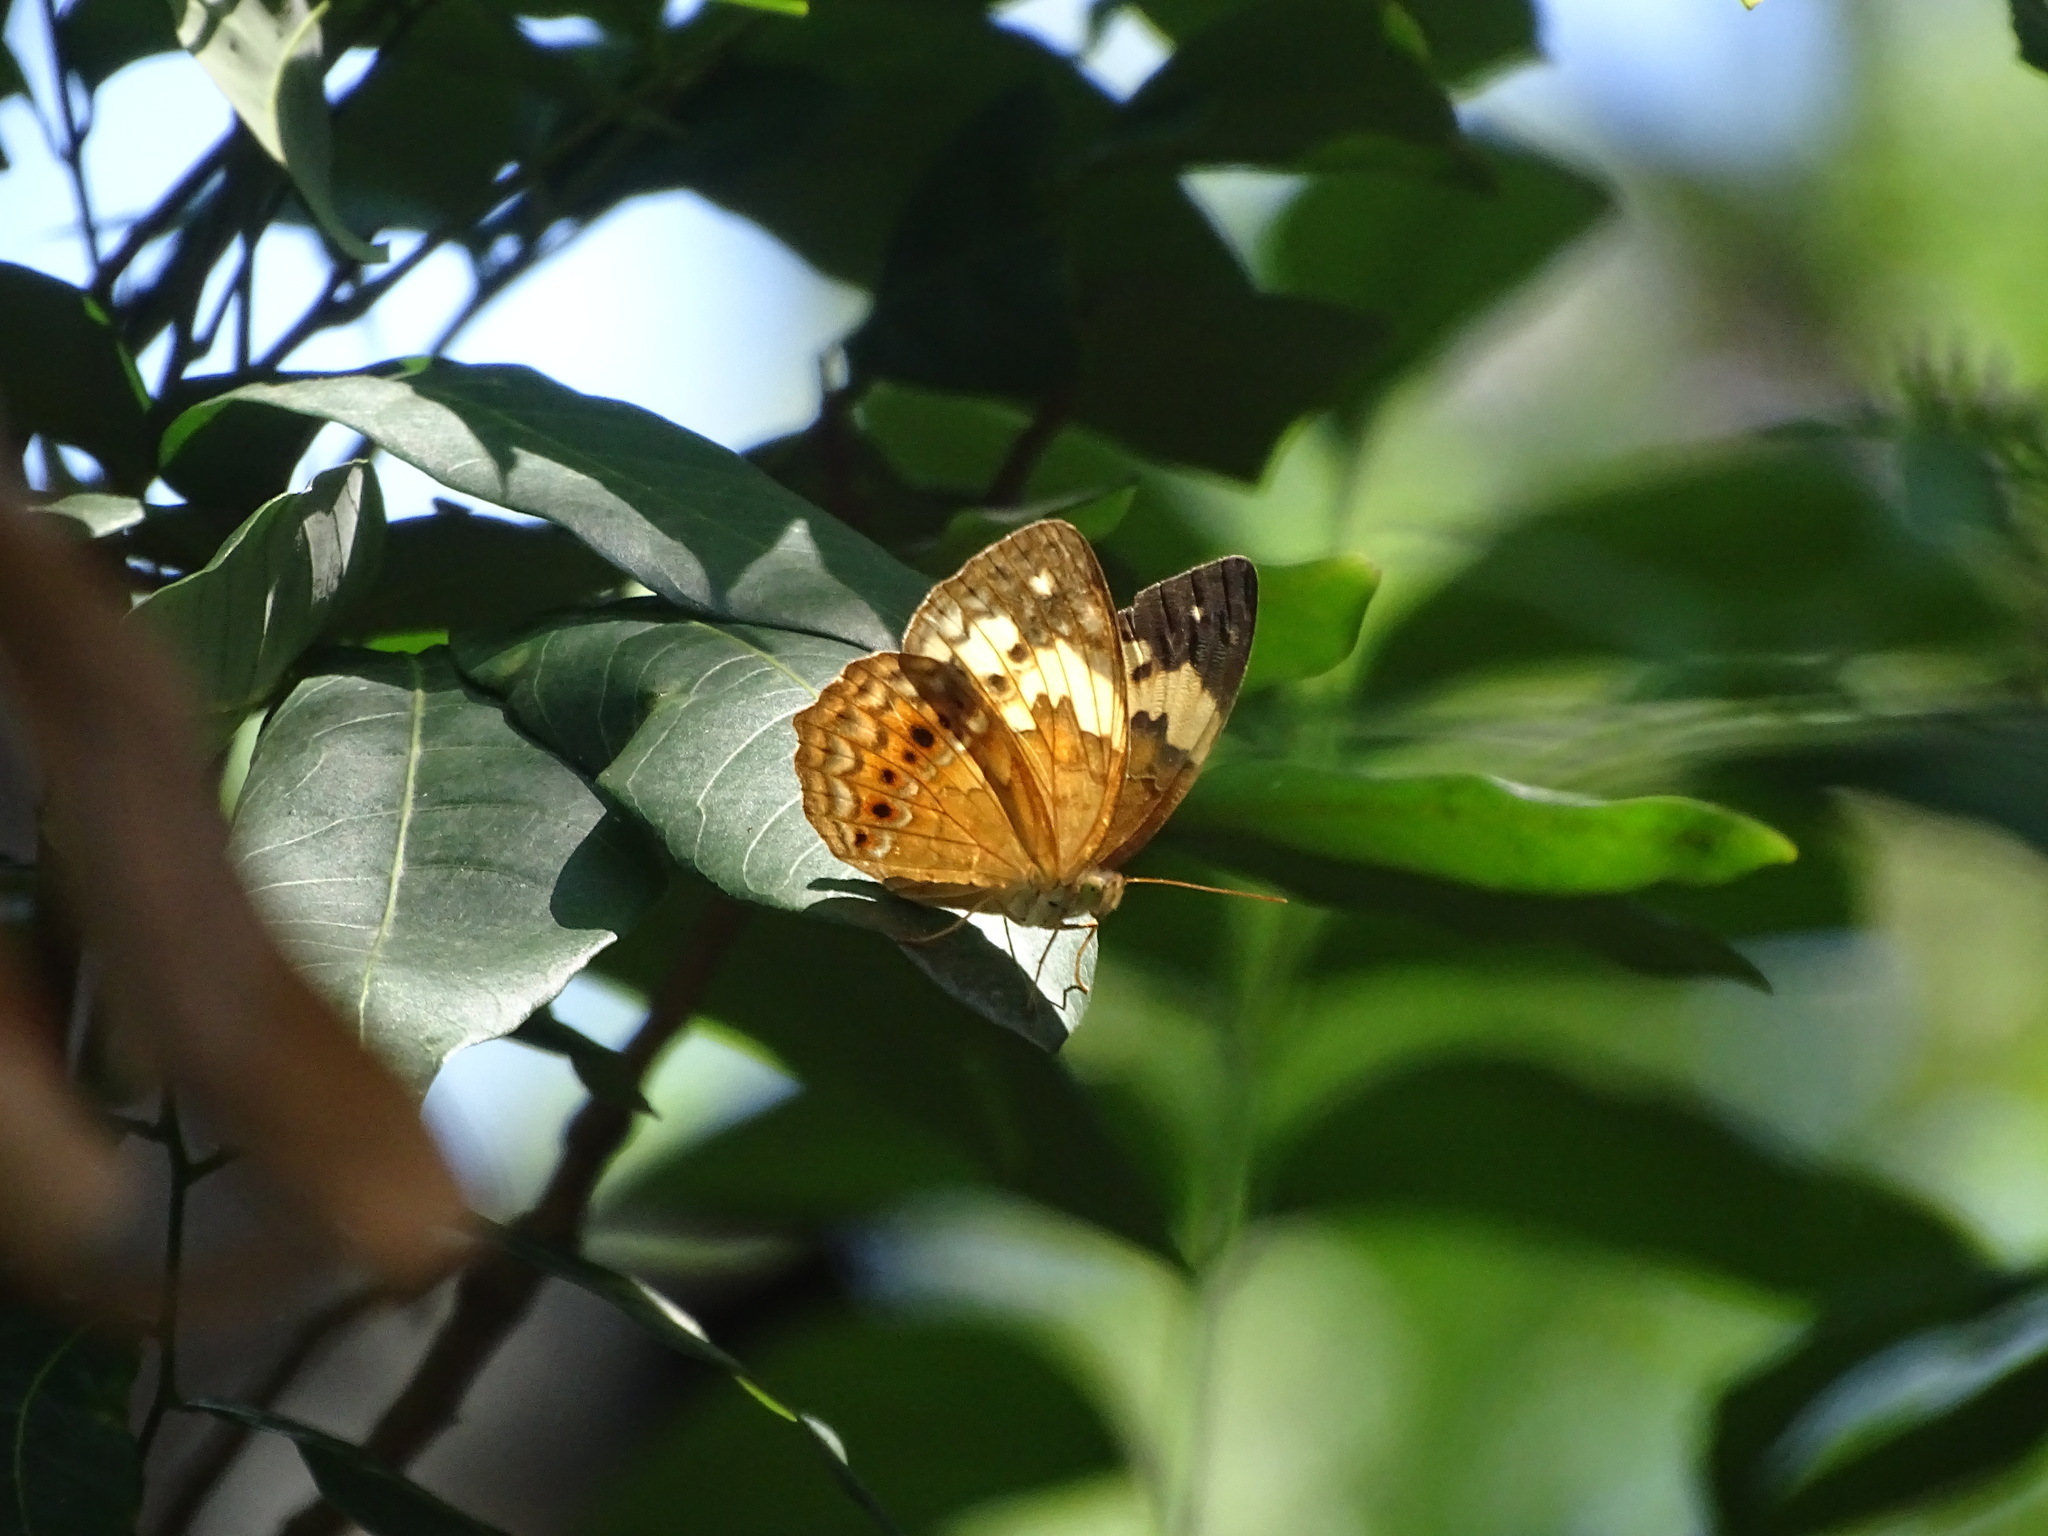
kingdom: Animalia
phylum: Arthropoda
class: Insecta
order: Lepidoptera
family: Nymphalidae
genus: Cupha
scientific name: Cupha erymanthis
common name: Rustic
